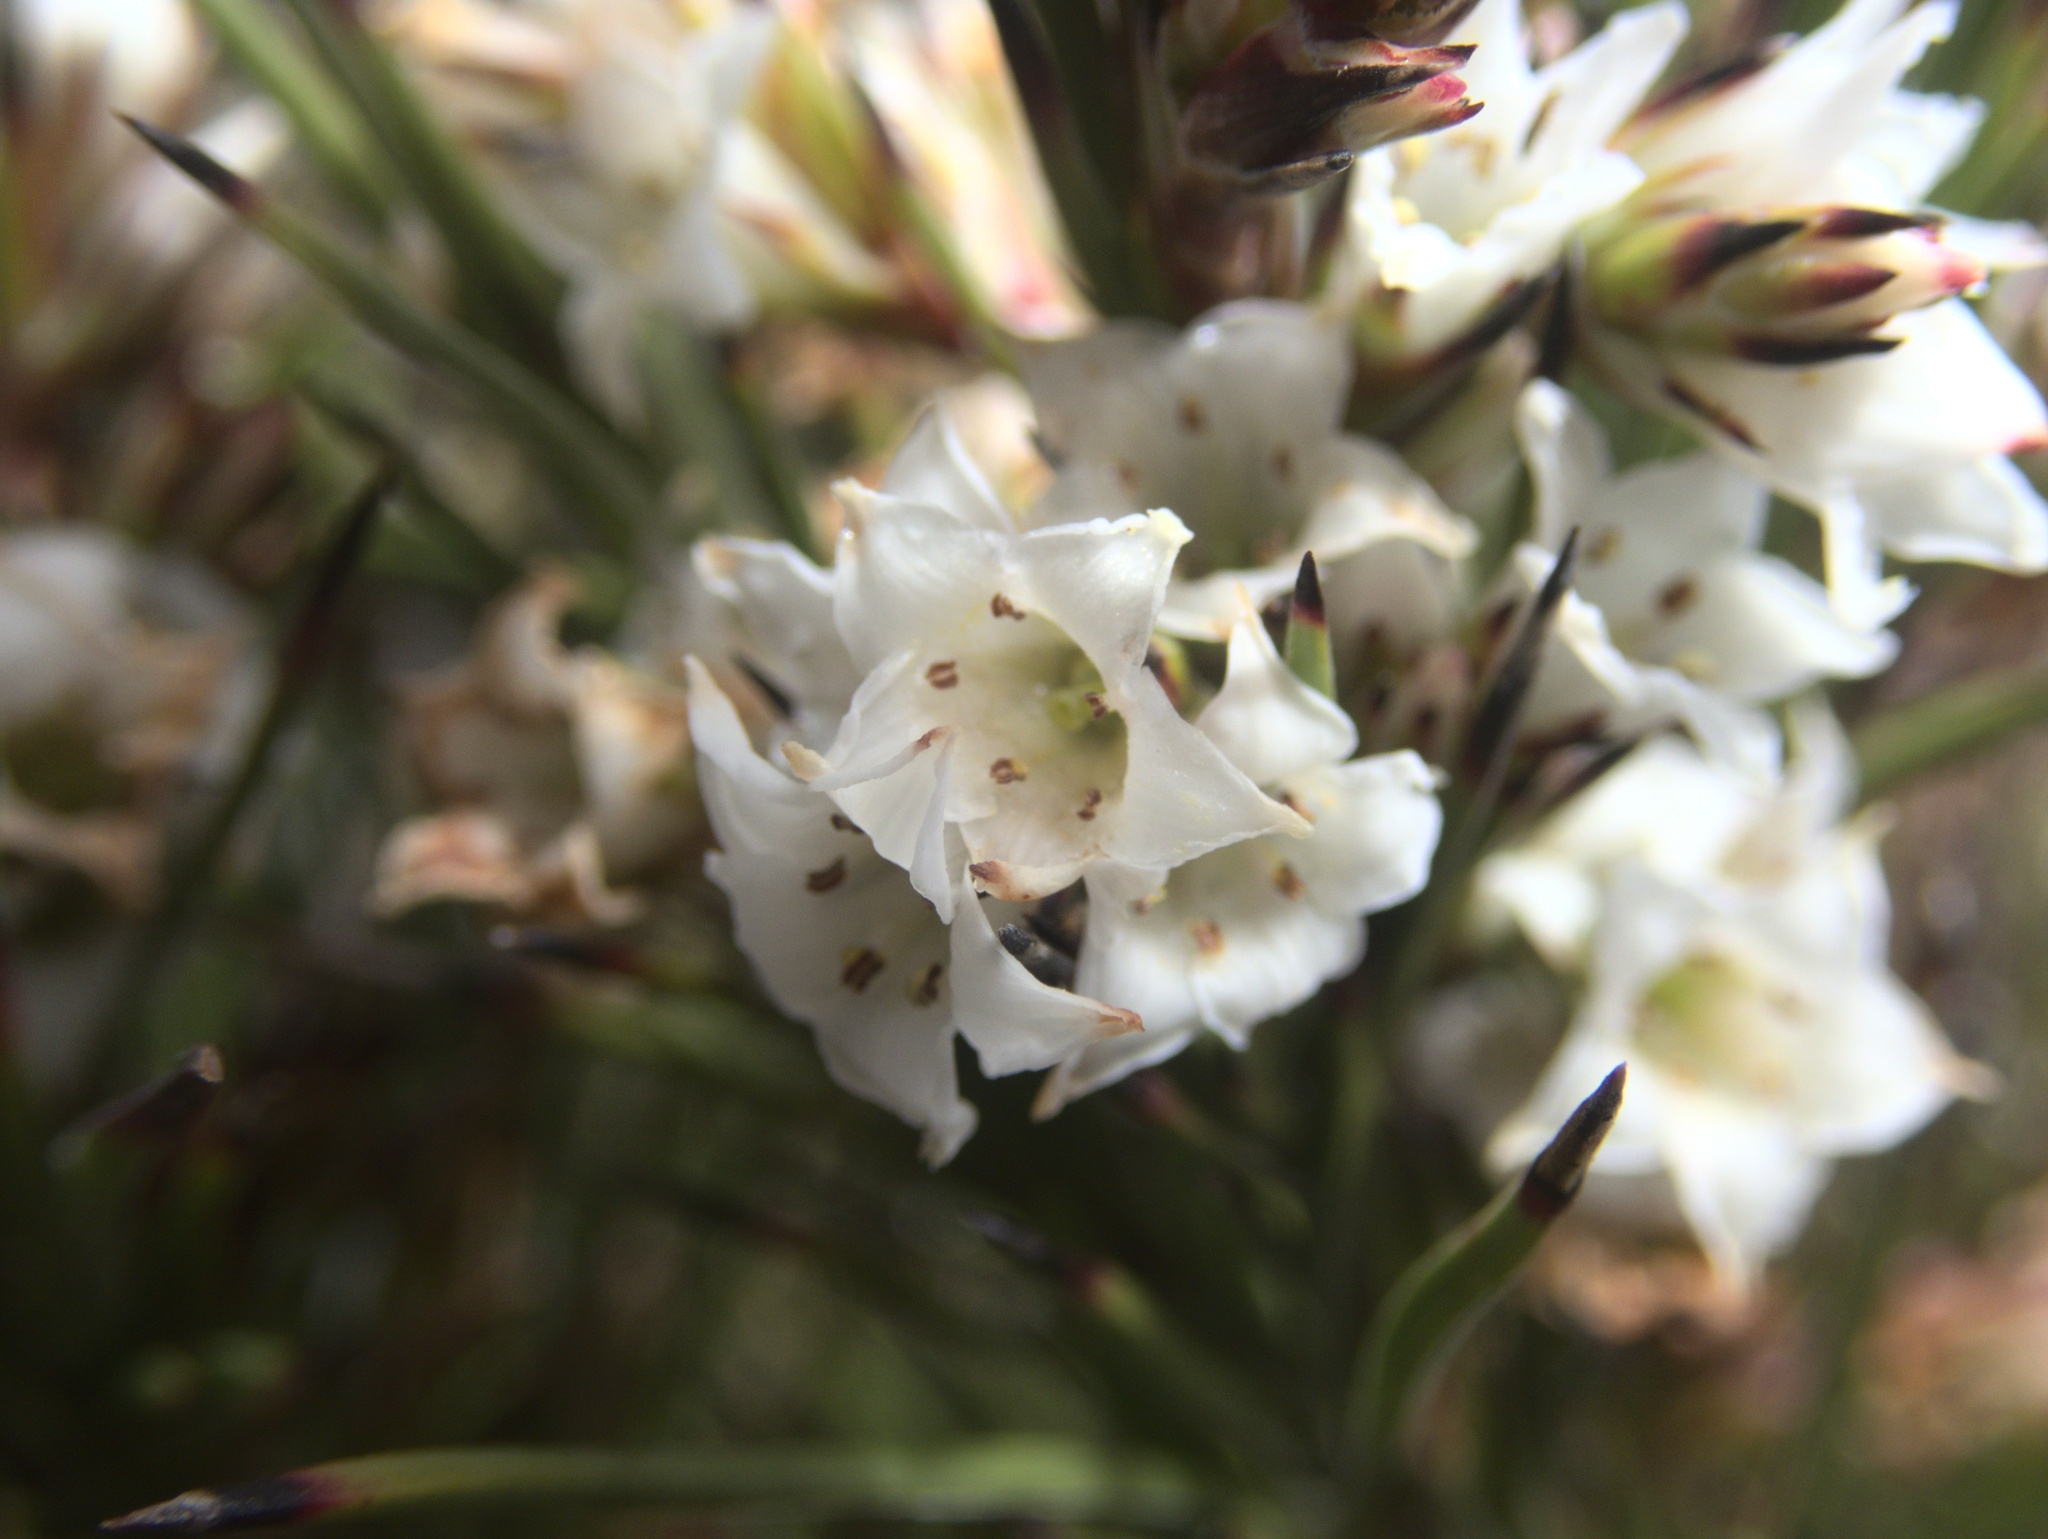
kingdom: Plantae
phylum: Tracheophyta
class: Magnoliopsida
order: Ericales
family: Ericaceae
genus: Dracophyllum
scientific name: Dracophyllum scoparium
